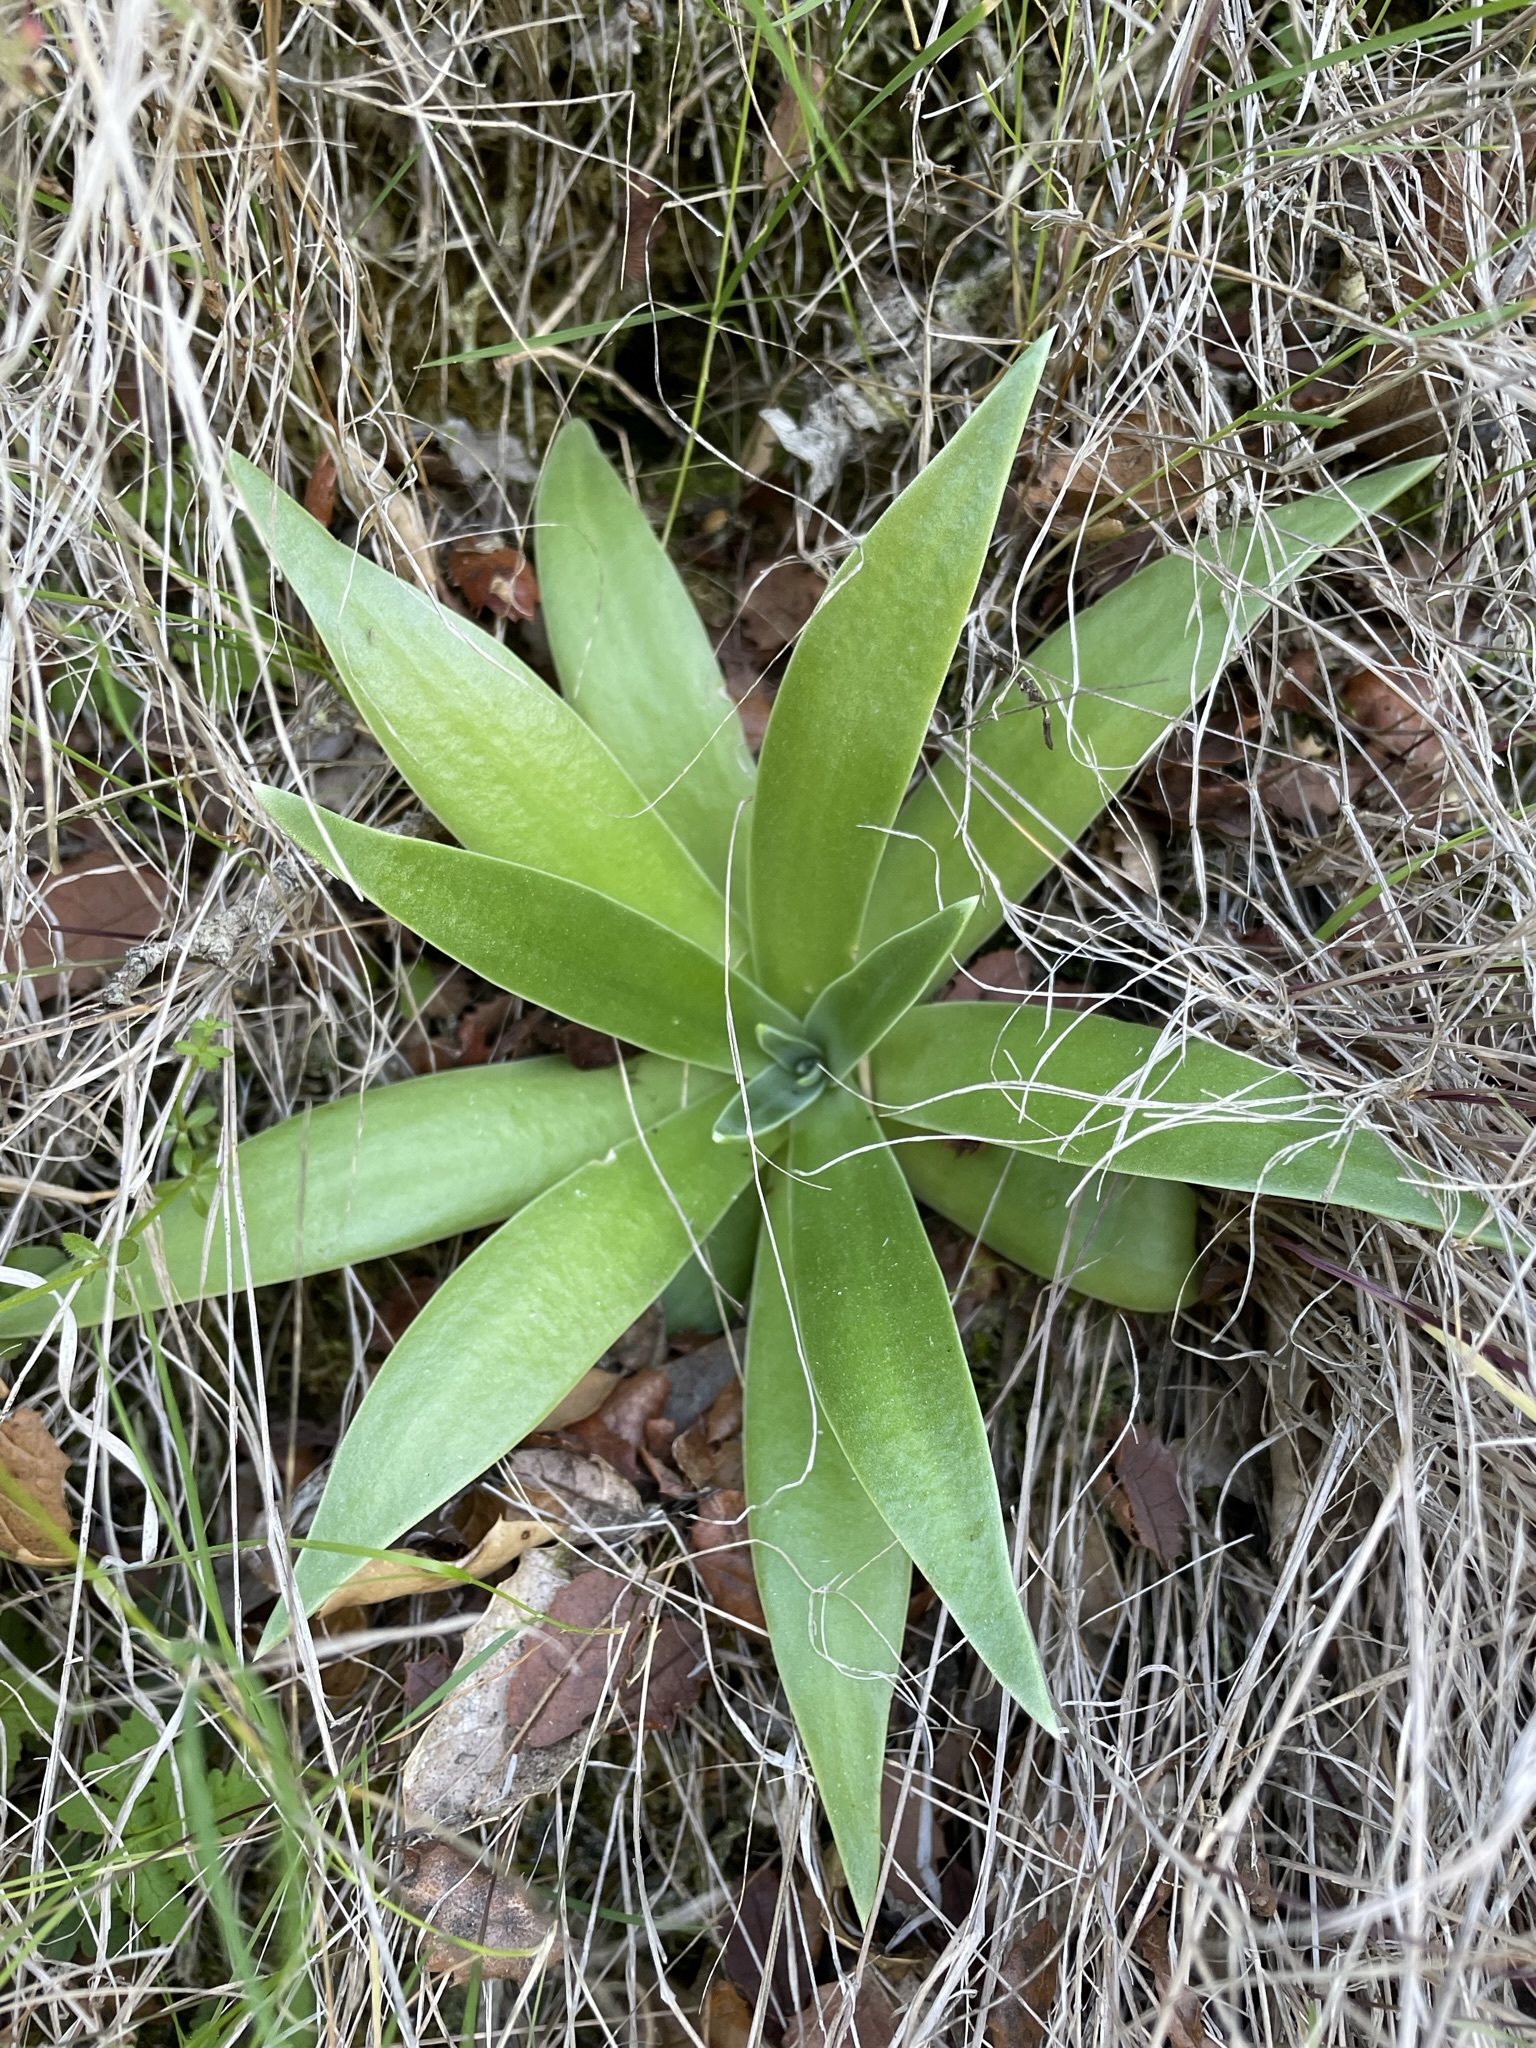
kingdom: Plantae
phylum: Tracheophyta
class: Magnoliopsida
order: Saxifragales
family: Crassulaceae
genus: Dudleya
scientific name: Dudleya lanceolata
